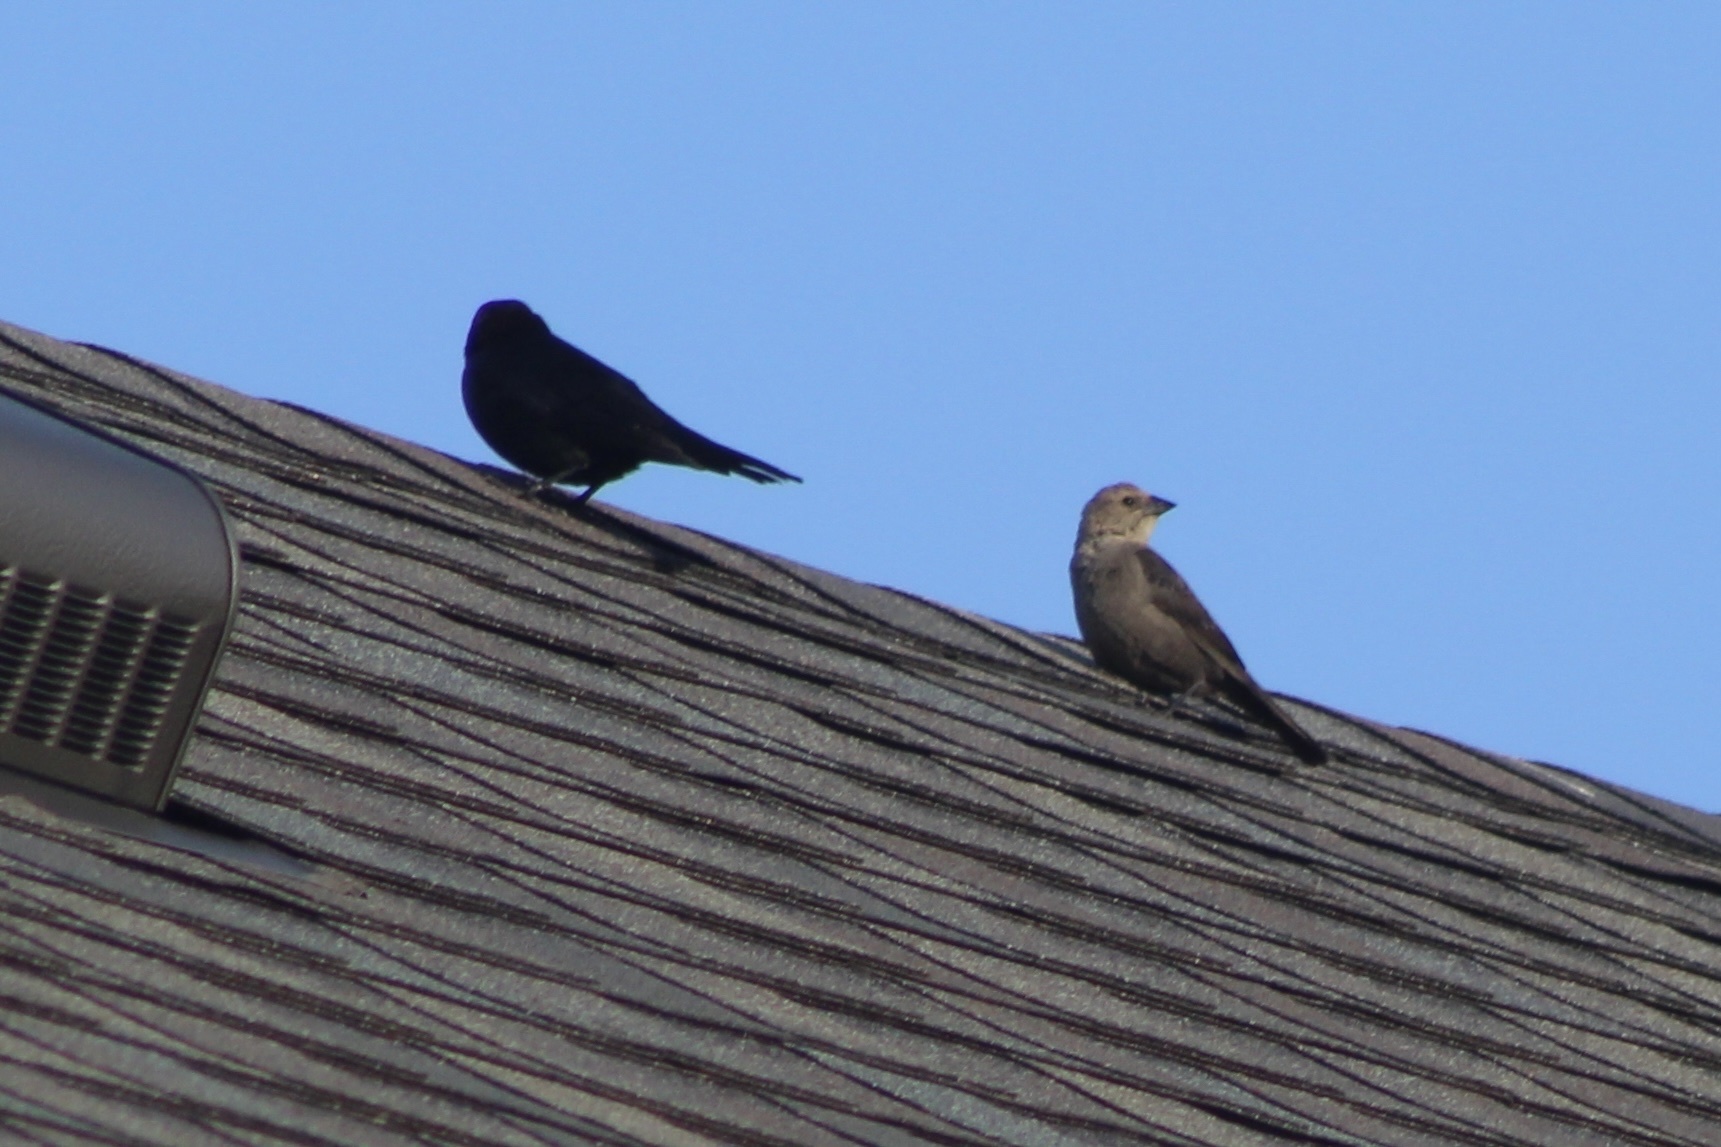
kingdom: Animalia
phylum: Chordata
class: Aves
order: Passeriformes
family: Icteridae
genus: Molothrus
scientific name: Molothrus ater
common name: Brown-headed cowbird
